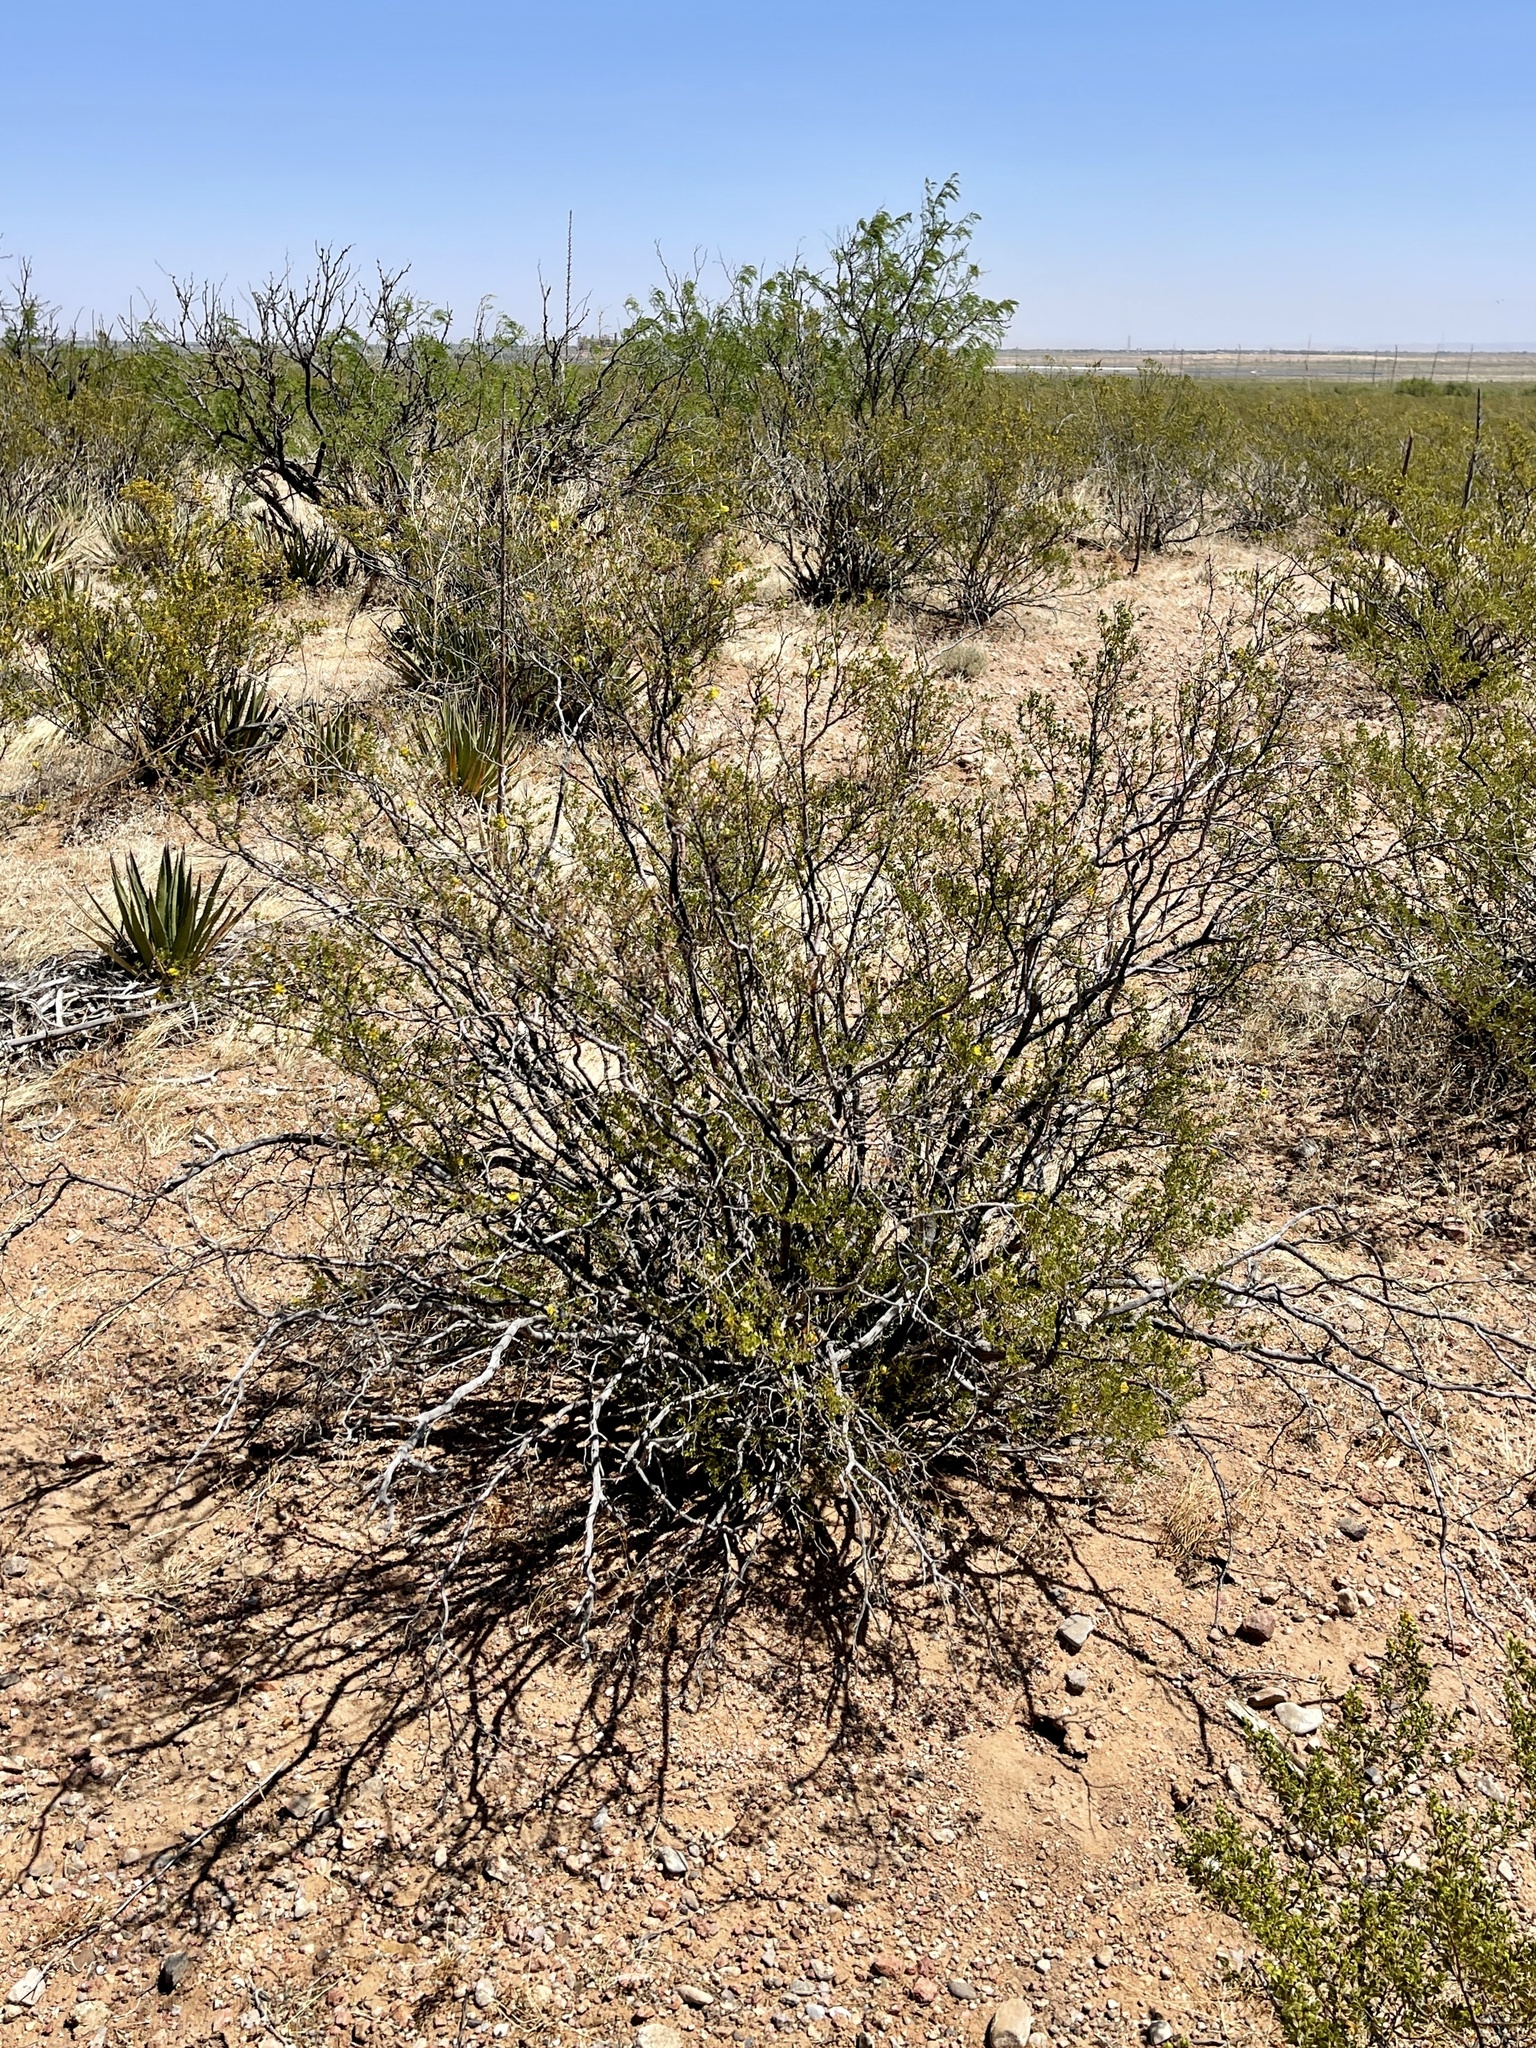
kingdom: Plantae
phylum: Tracheophyta
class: Magnoliopsida
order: Zygophyllales
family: Zygophyllaceae
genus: Larrea
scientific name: Larrea tridentata
